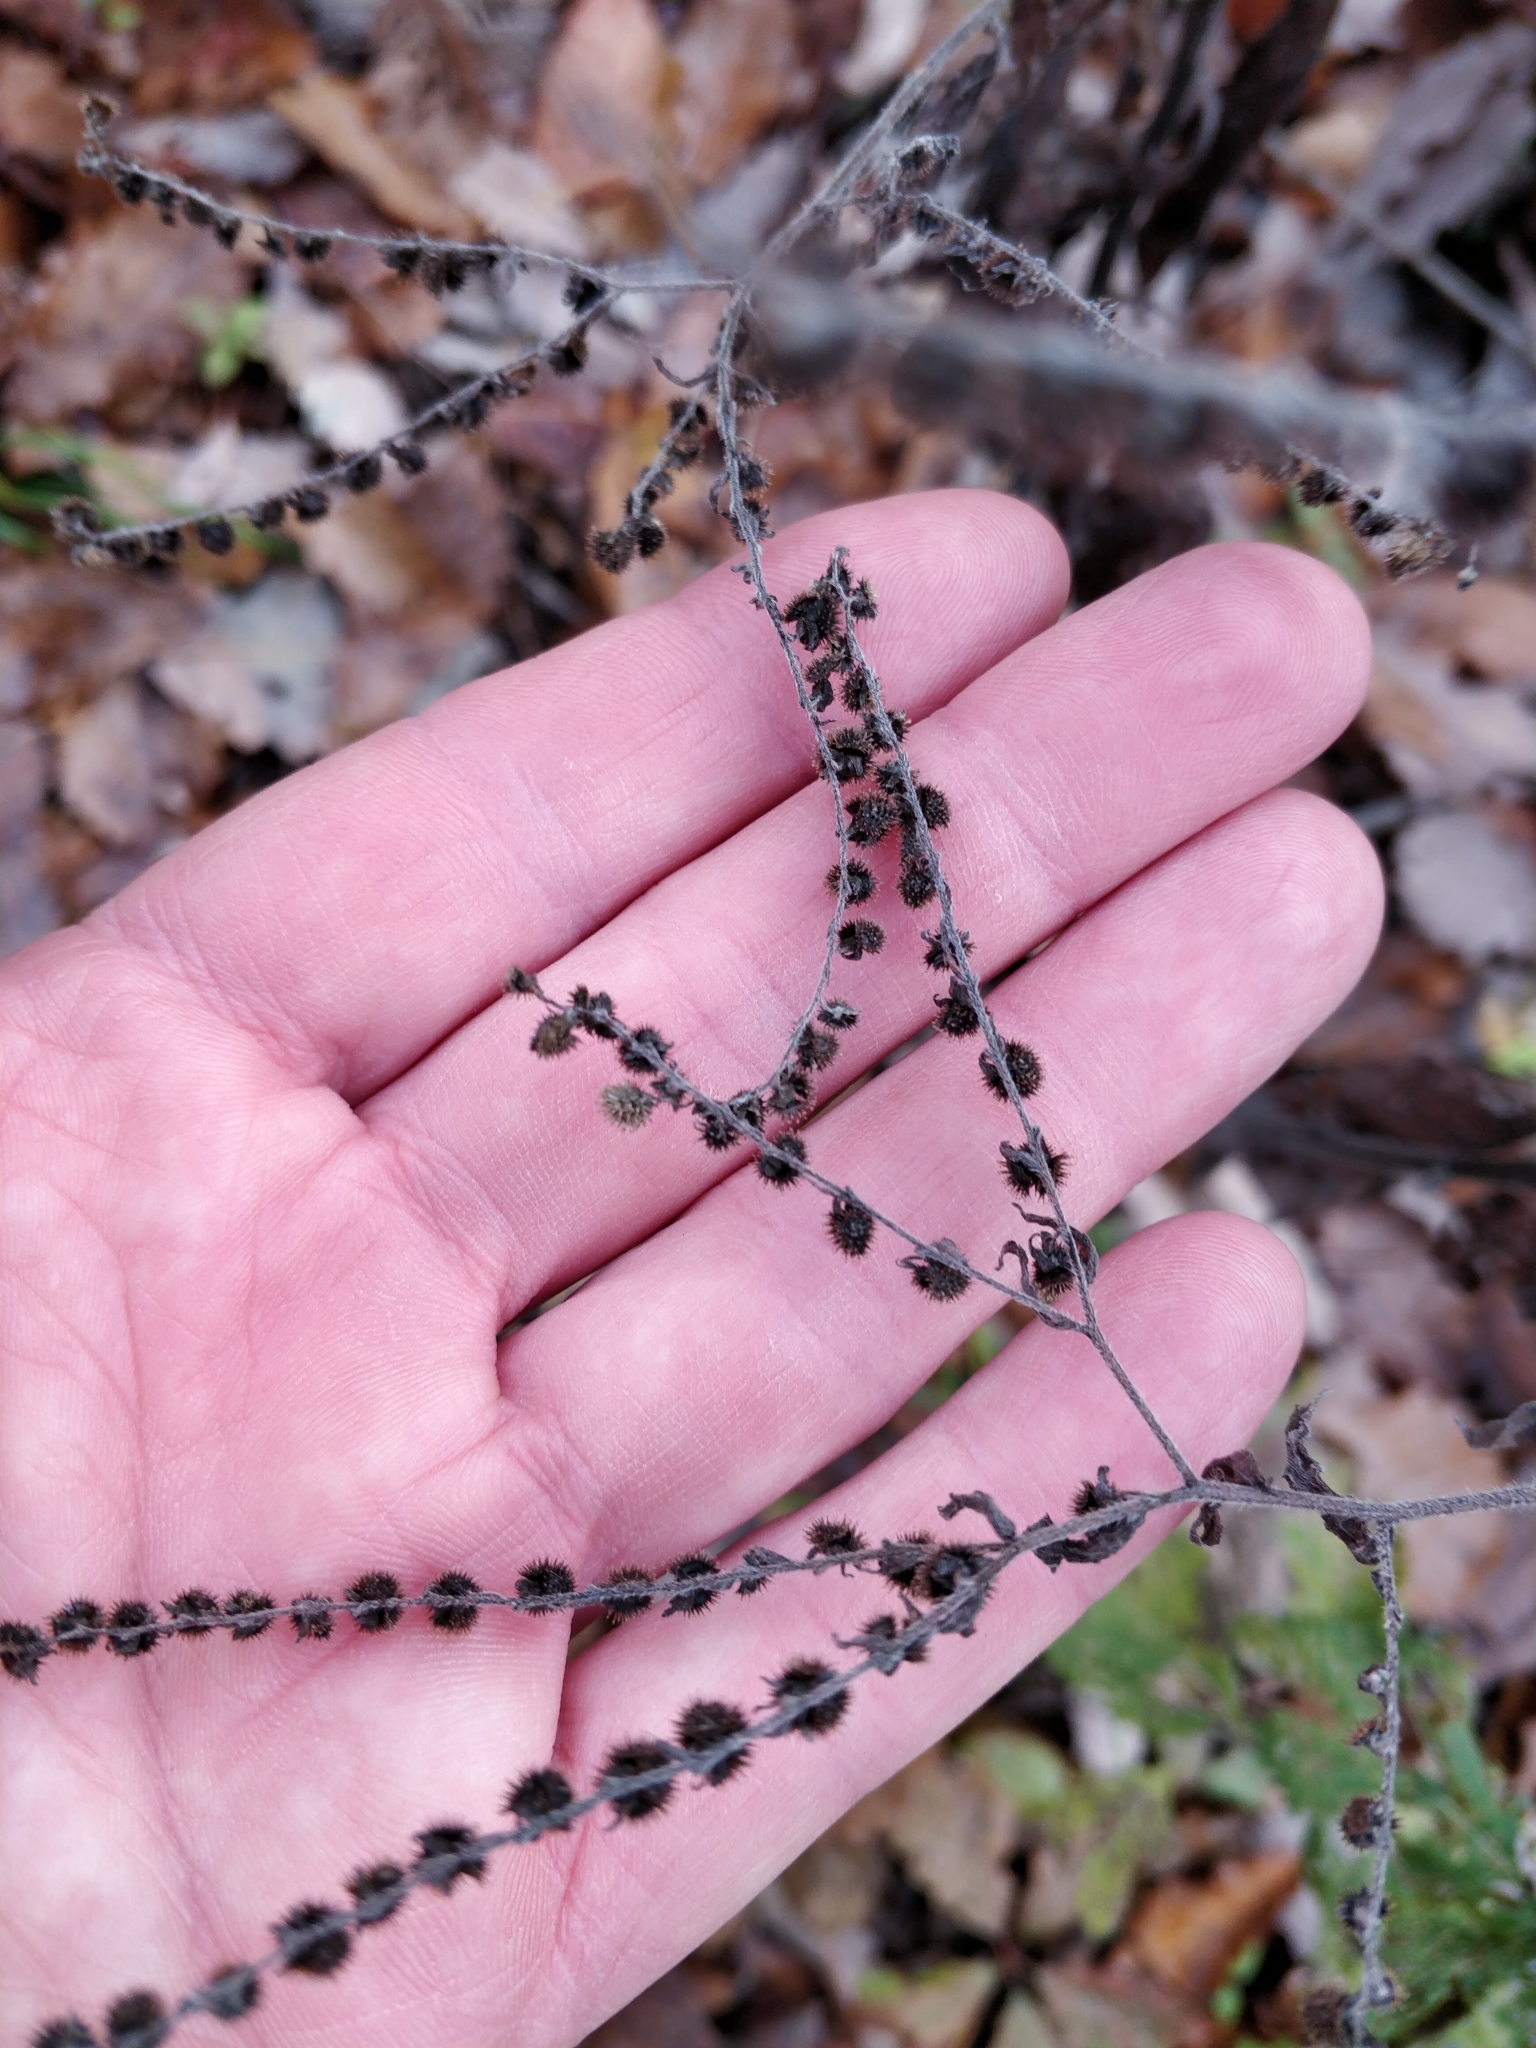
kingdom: Plantae
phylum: Tracheophyta
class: Magnoliopsida
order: Boraginales
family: Boraginaceae
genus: Hackelia
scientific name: Hackelia virginiana
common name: Beggar's-lice
